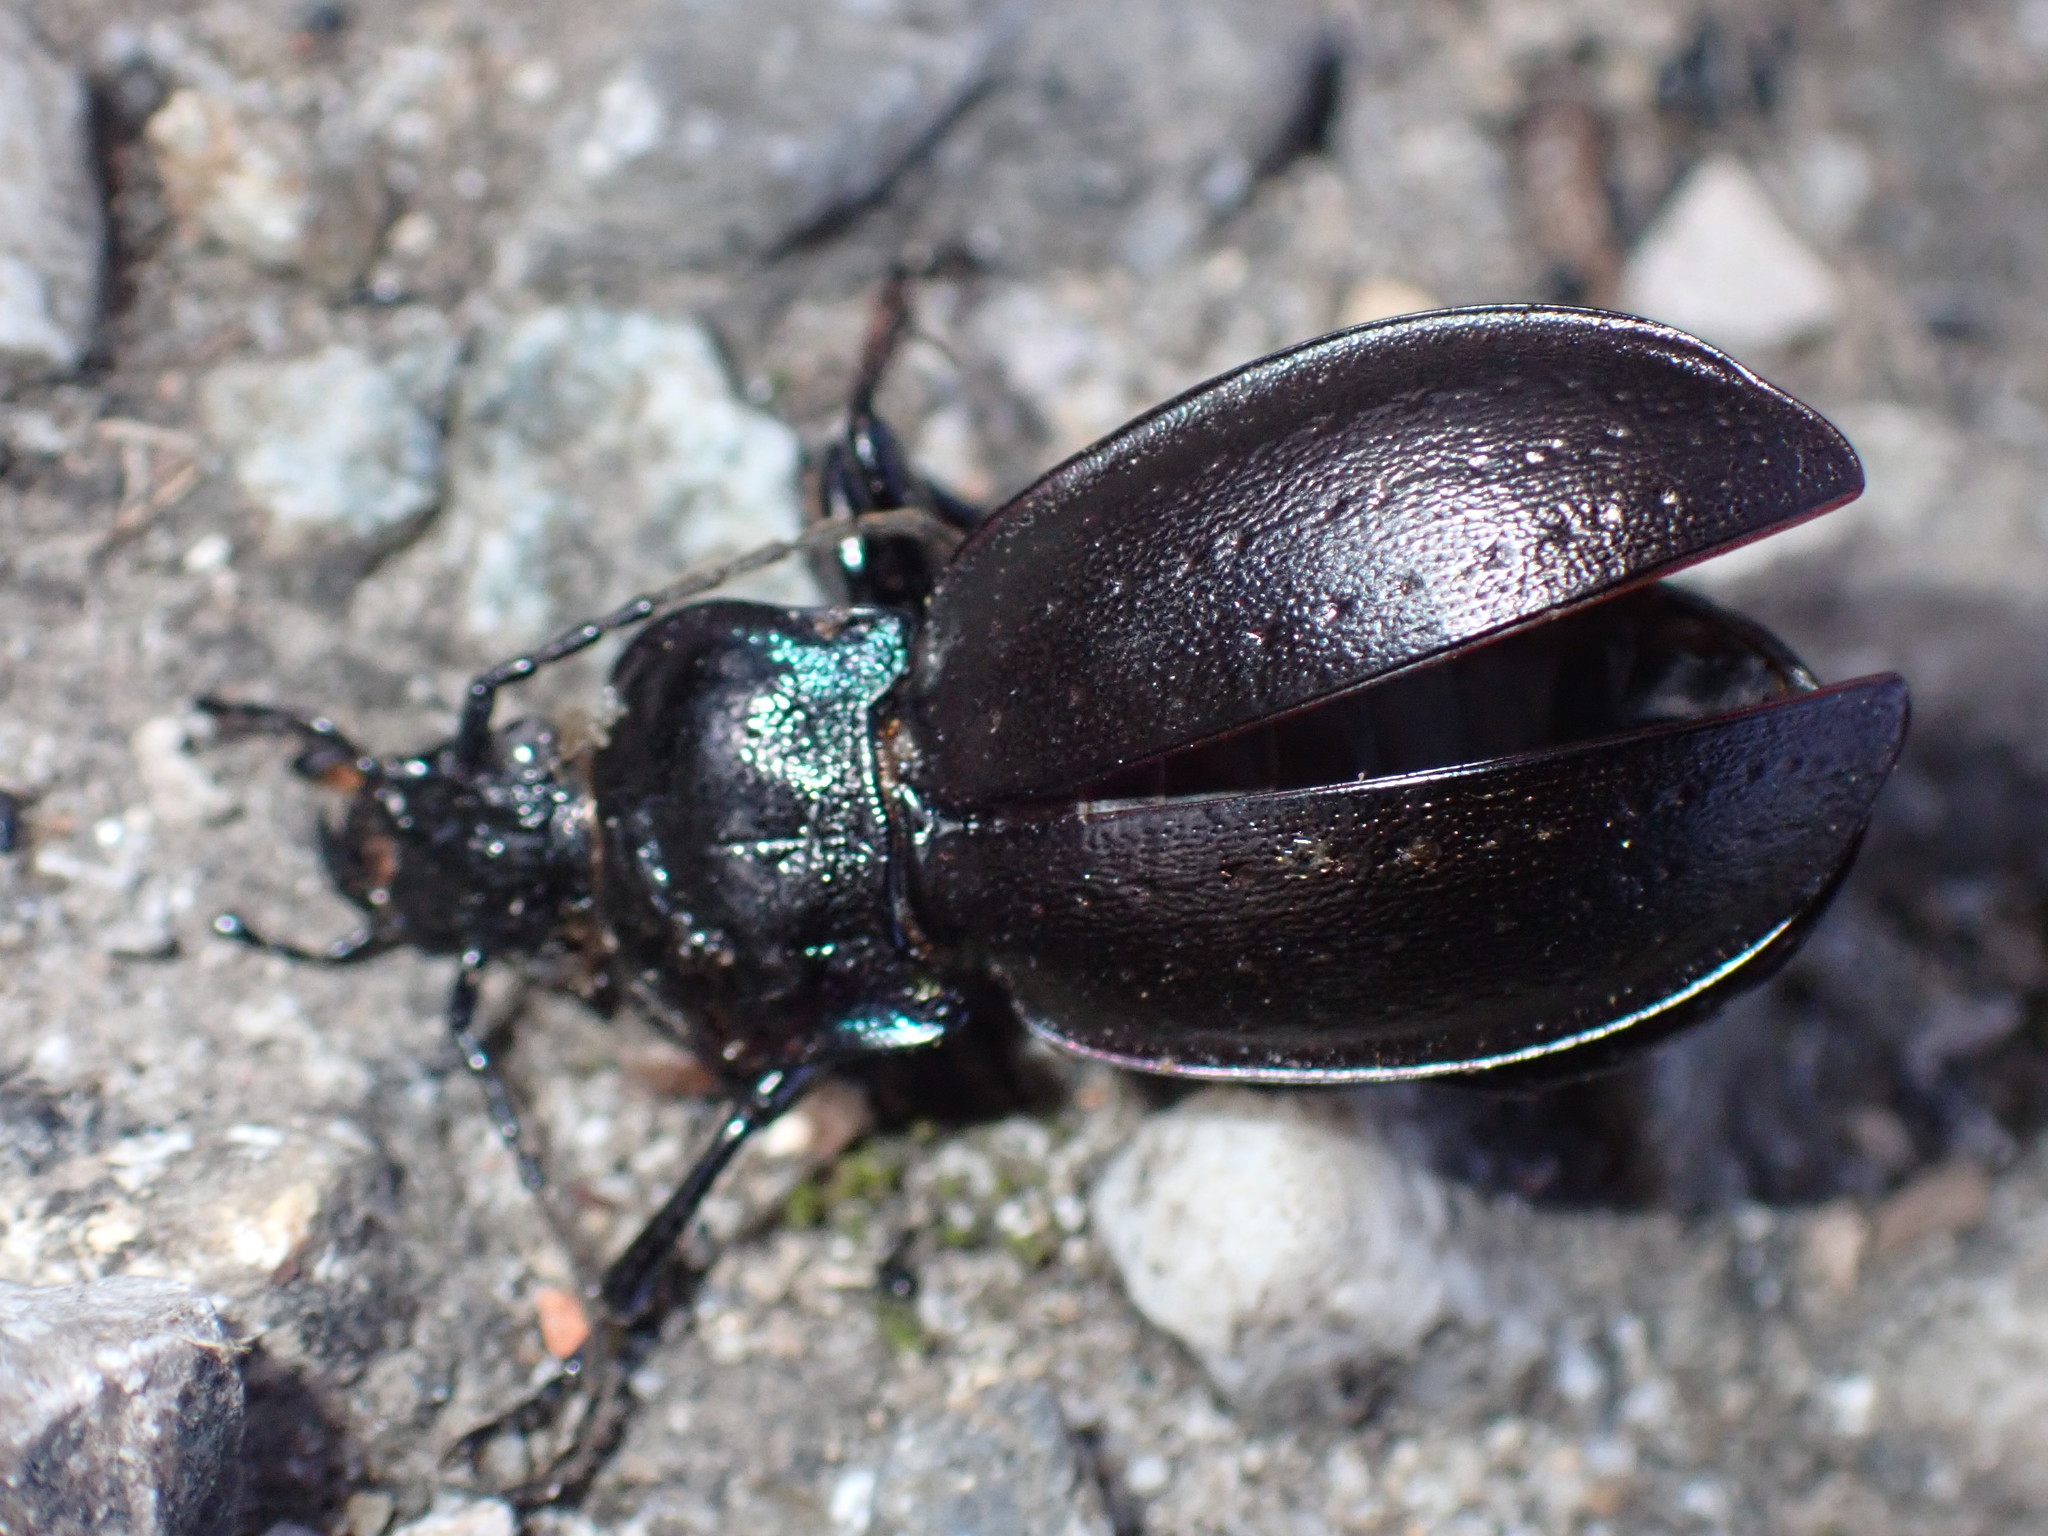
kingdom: Animalia
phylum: Arthropoda
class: Insecta
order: Coleoptera
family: Carabidae
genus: Carabus
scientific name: Carabus nemoralis
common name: European ground beetle
